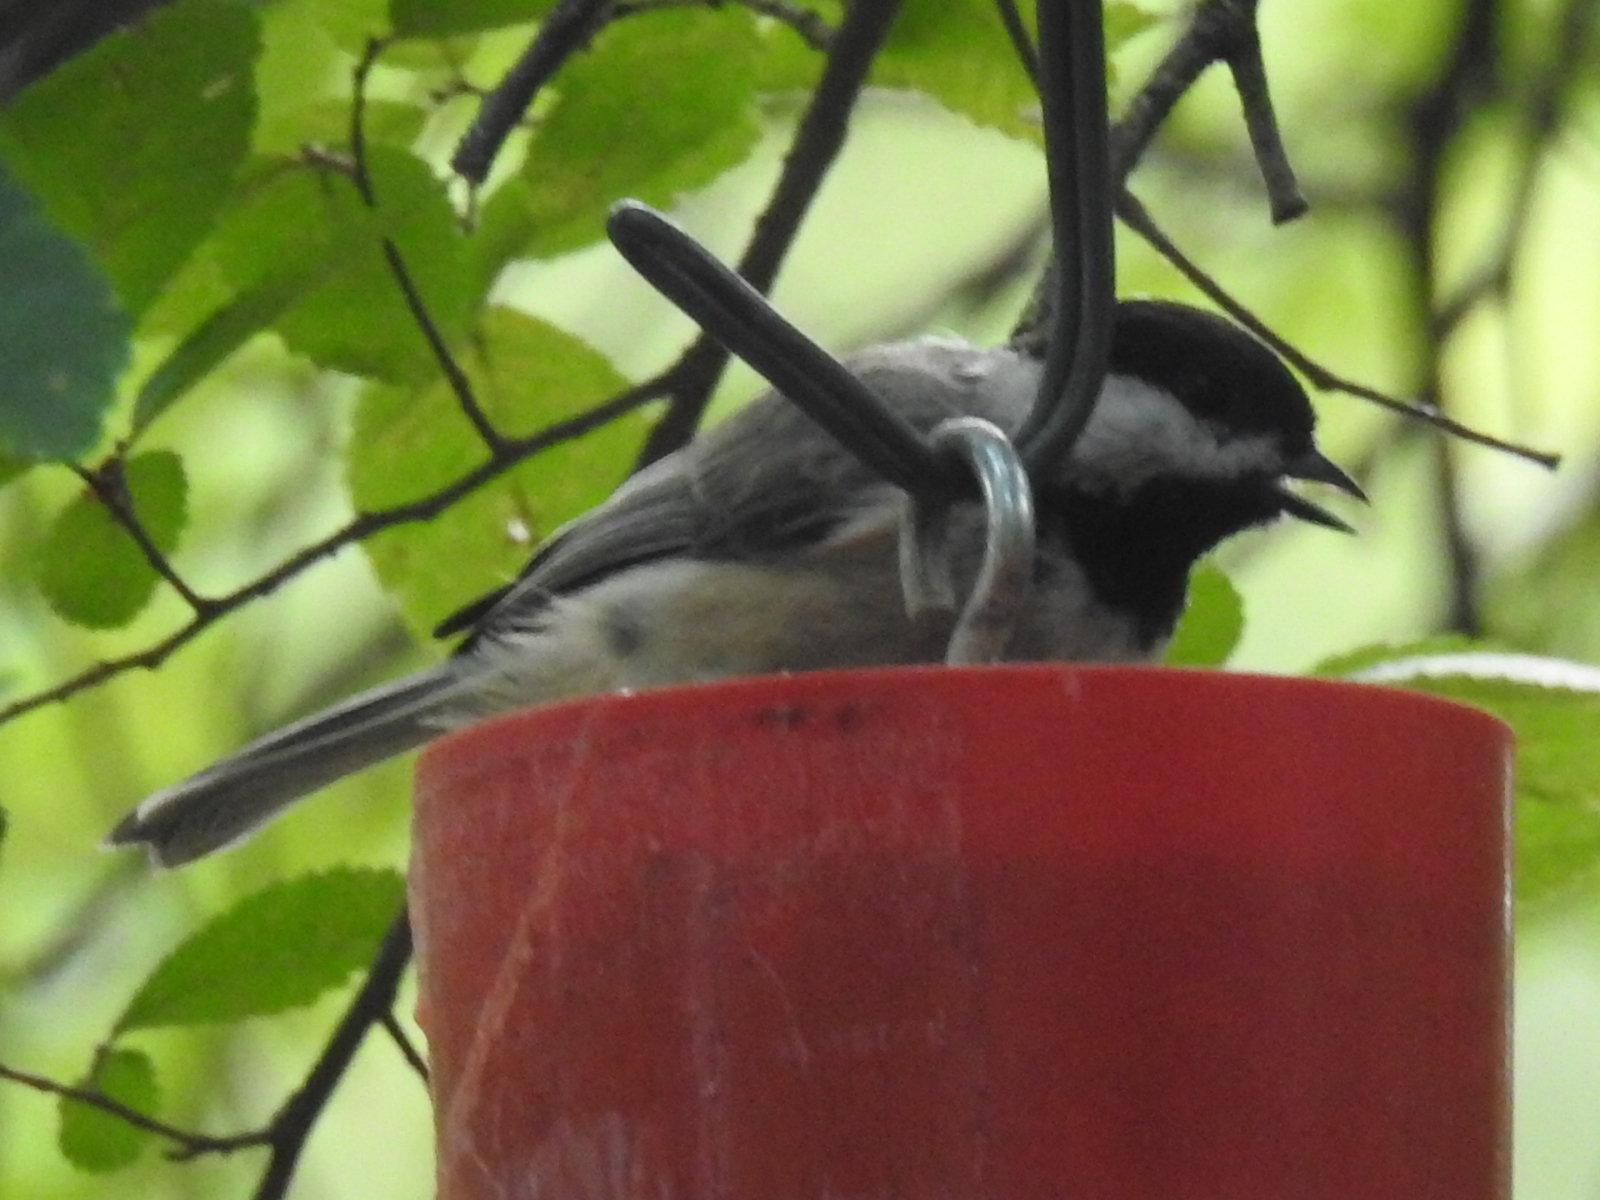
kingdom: Animalia
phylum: Chordata
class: Aves
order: Passeriformes
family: Paridae
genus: Poecile
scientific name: Poecile carolinensis
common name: Carolina chickadee
